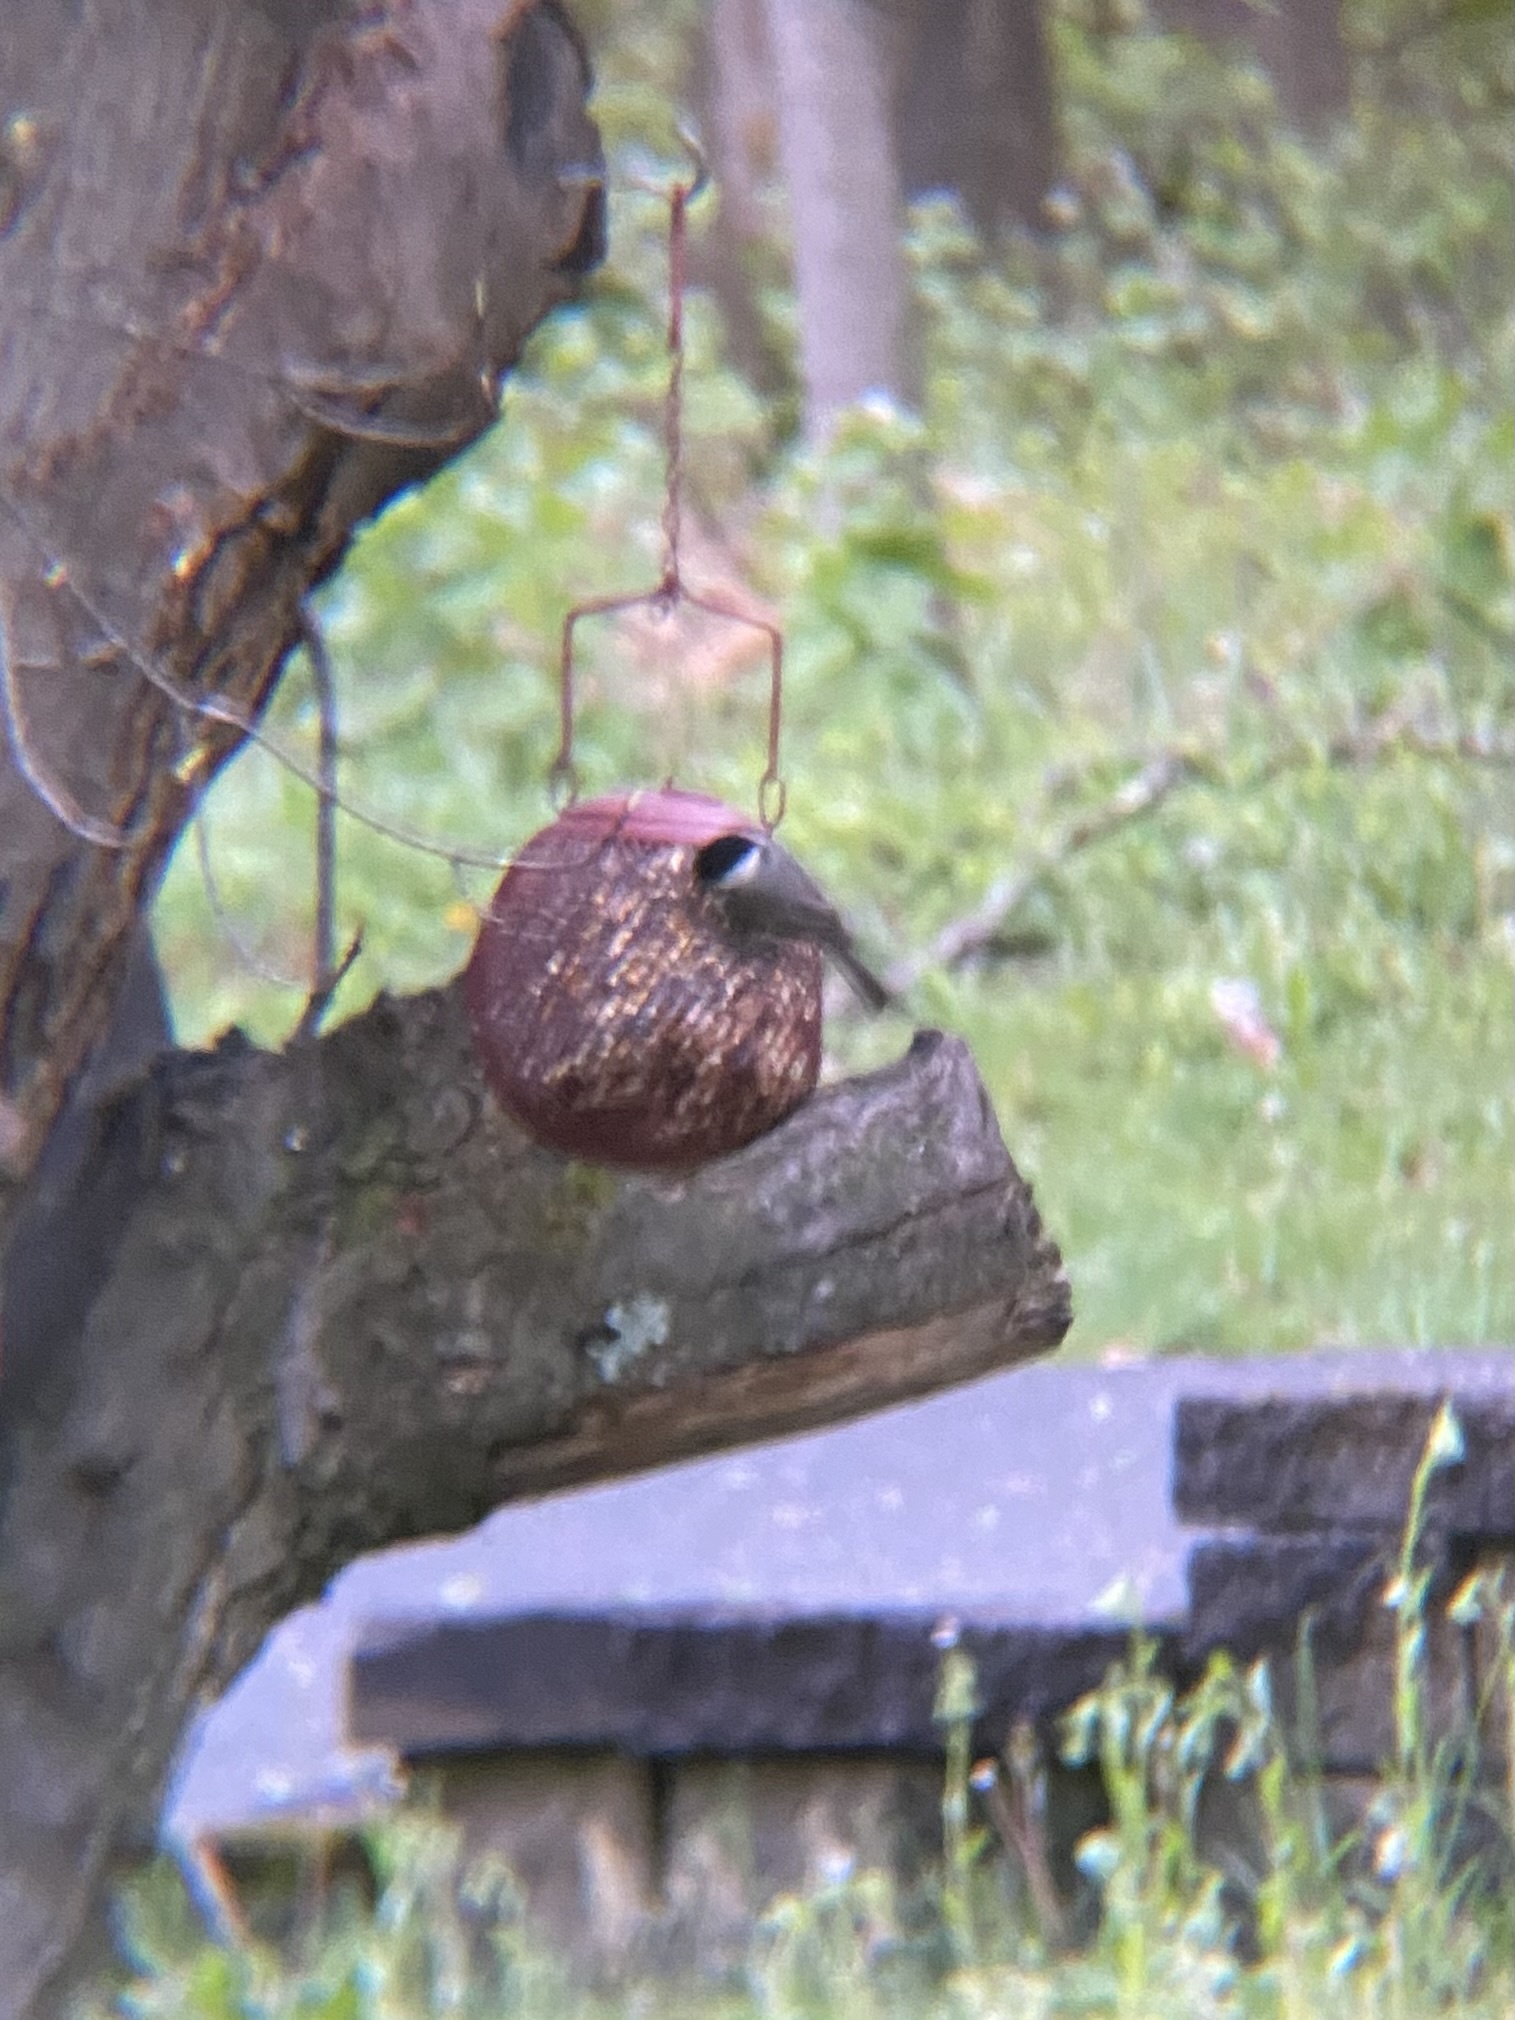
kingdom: Animalia
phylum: Chordata
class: Aves
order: Passeriformes
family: Paridae
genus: Poecile
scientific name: Poecile carolinensis
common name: Carolina chickadee
